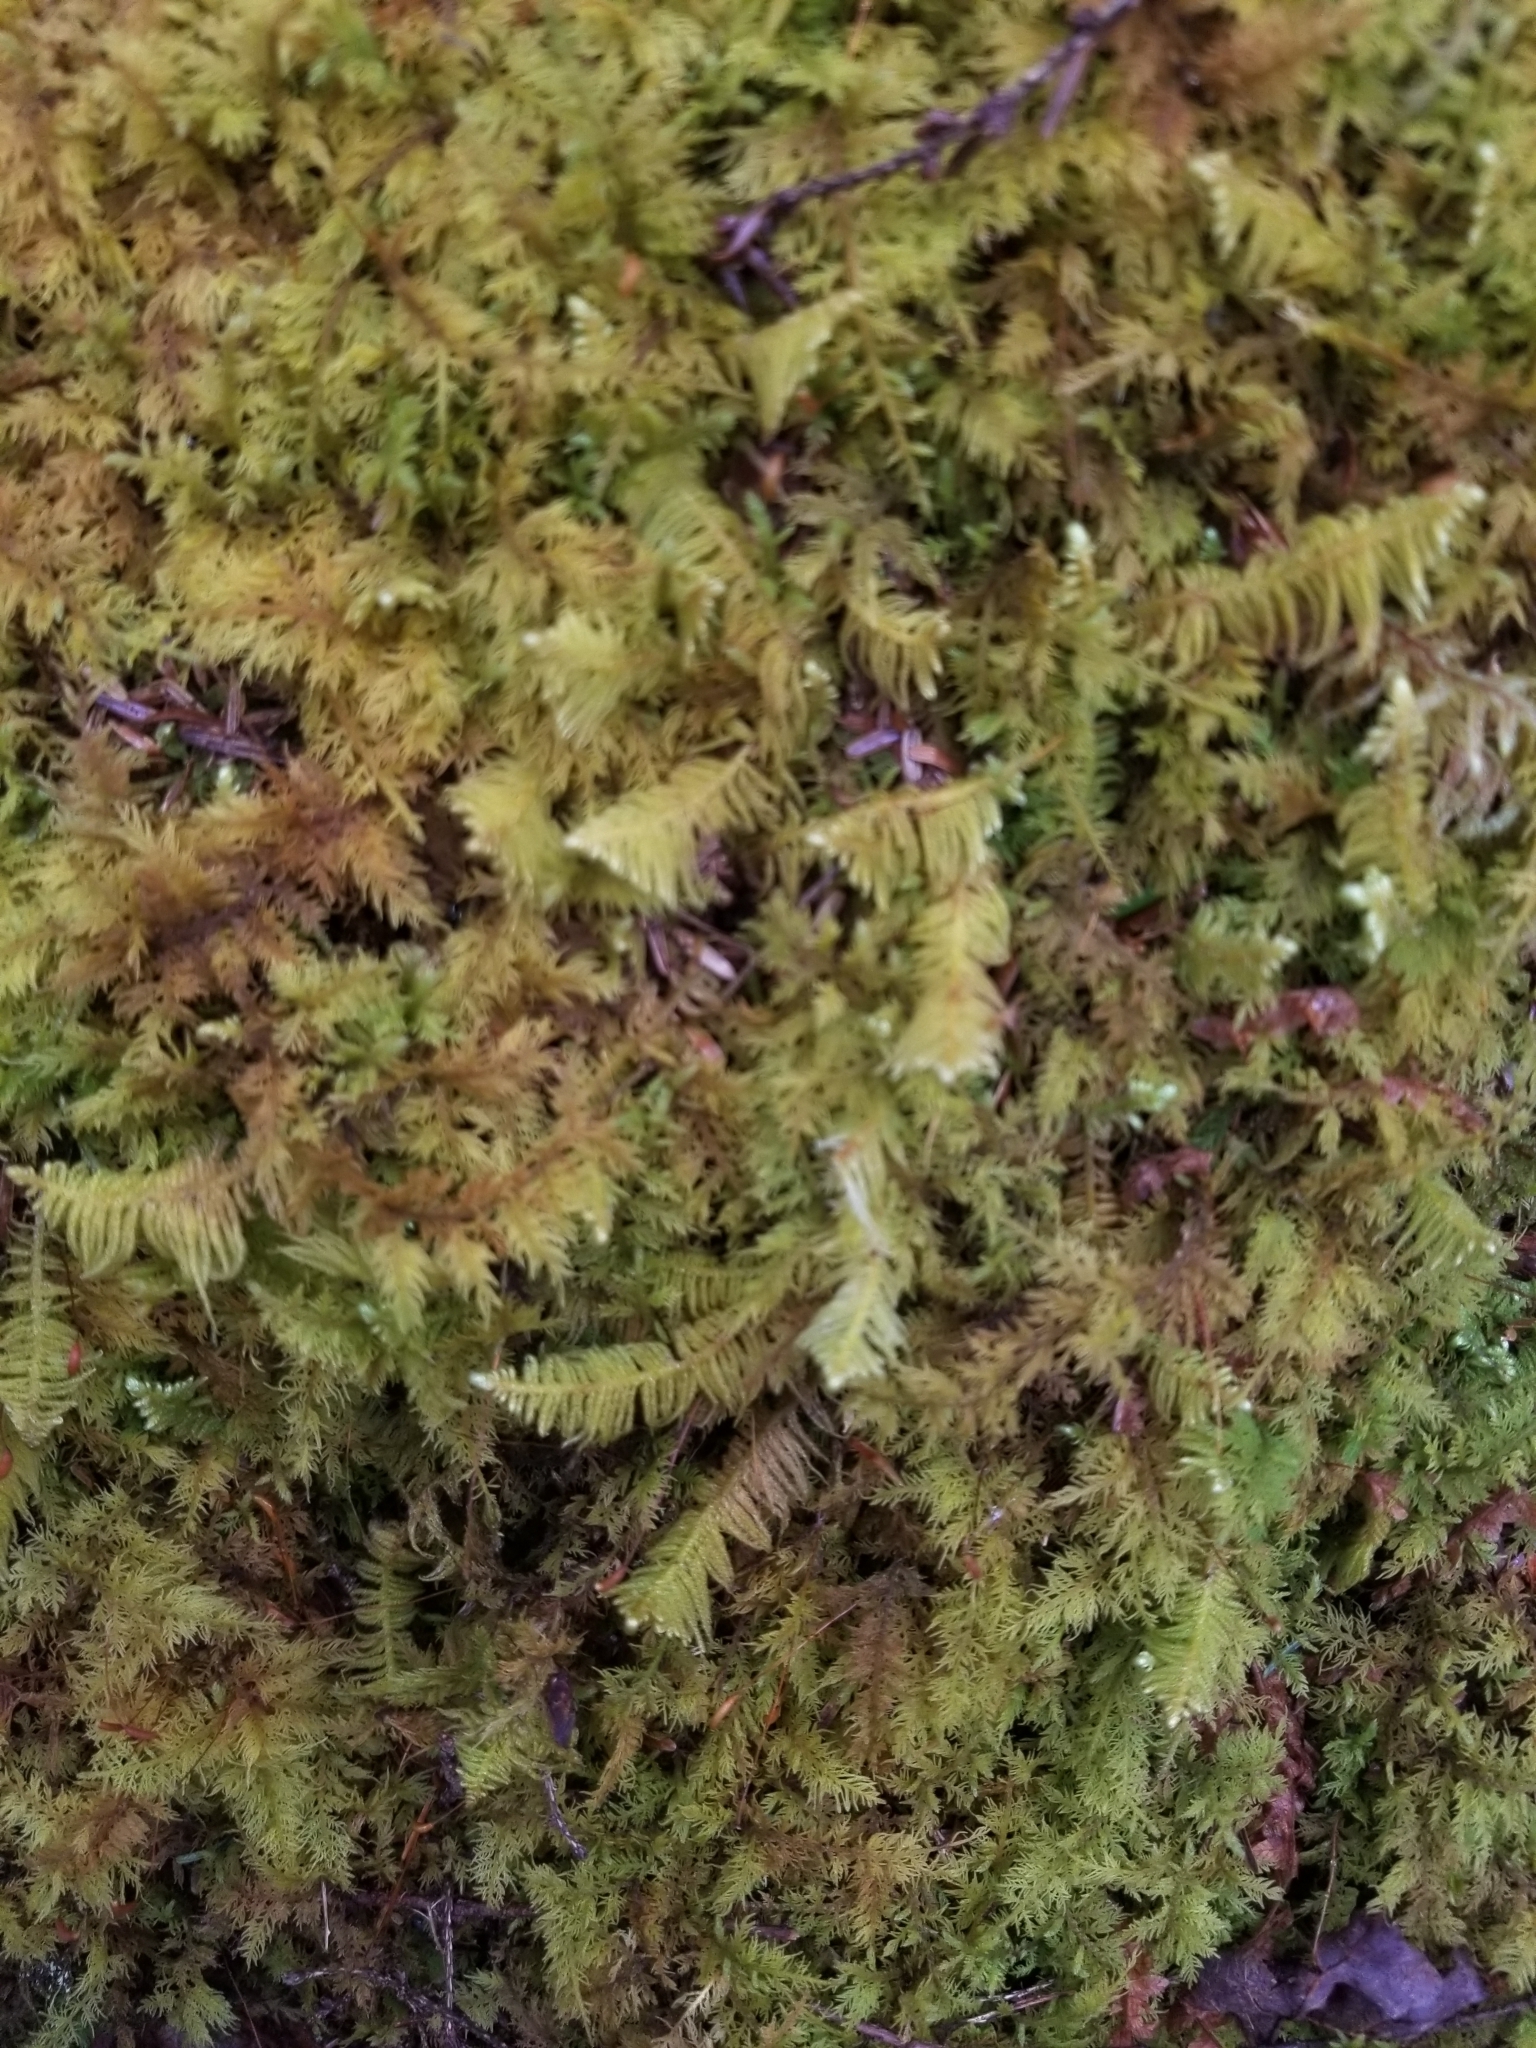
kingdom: Plantae
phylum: Bryophyta
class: Bryopsida
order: Hypnales
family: Pylaisiaceae
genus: Ptilium
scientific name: Ptilium crista-castrensis
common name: Knight's plume moss
